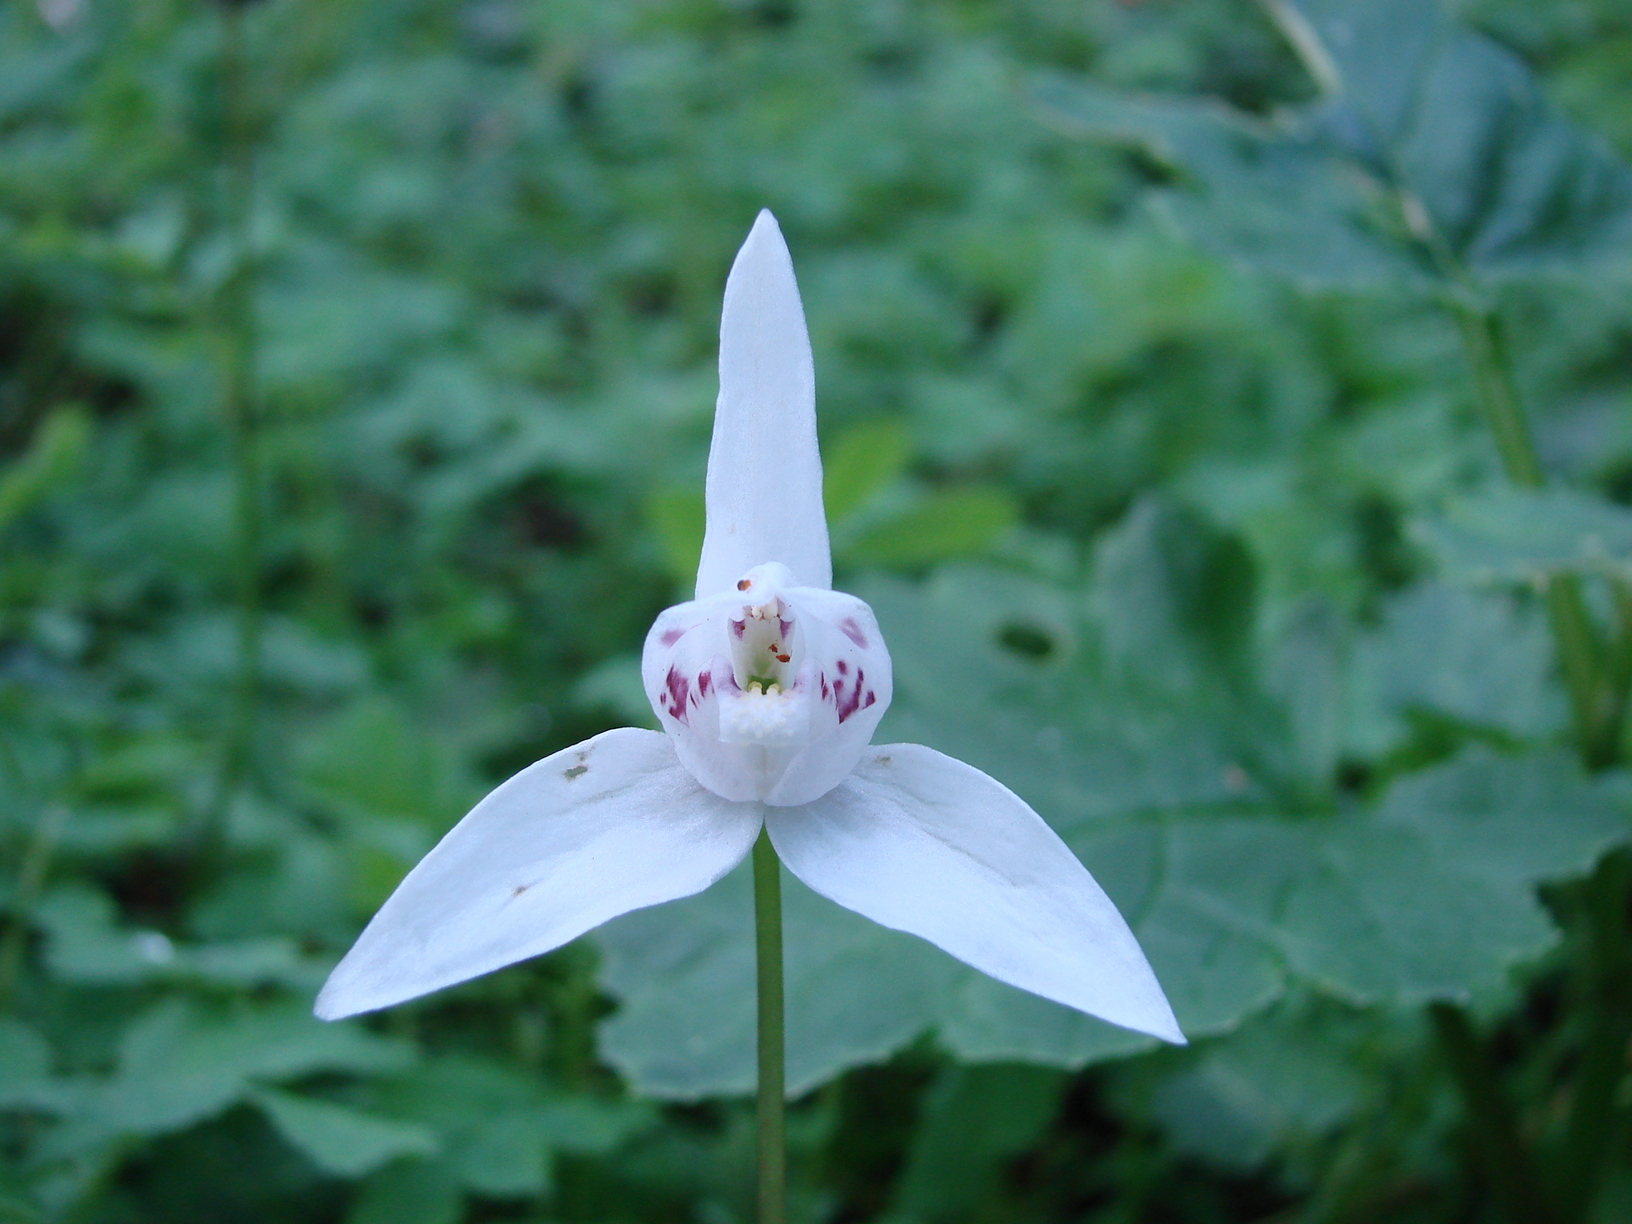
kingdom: Plantae
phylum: Tracheophyta
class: Liliopsida
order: Asparagales
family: Orchidaceae
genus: Codonorchis
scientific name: Codonorchis lessonii
